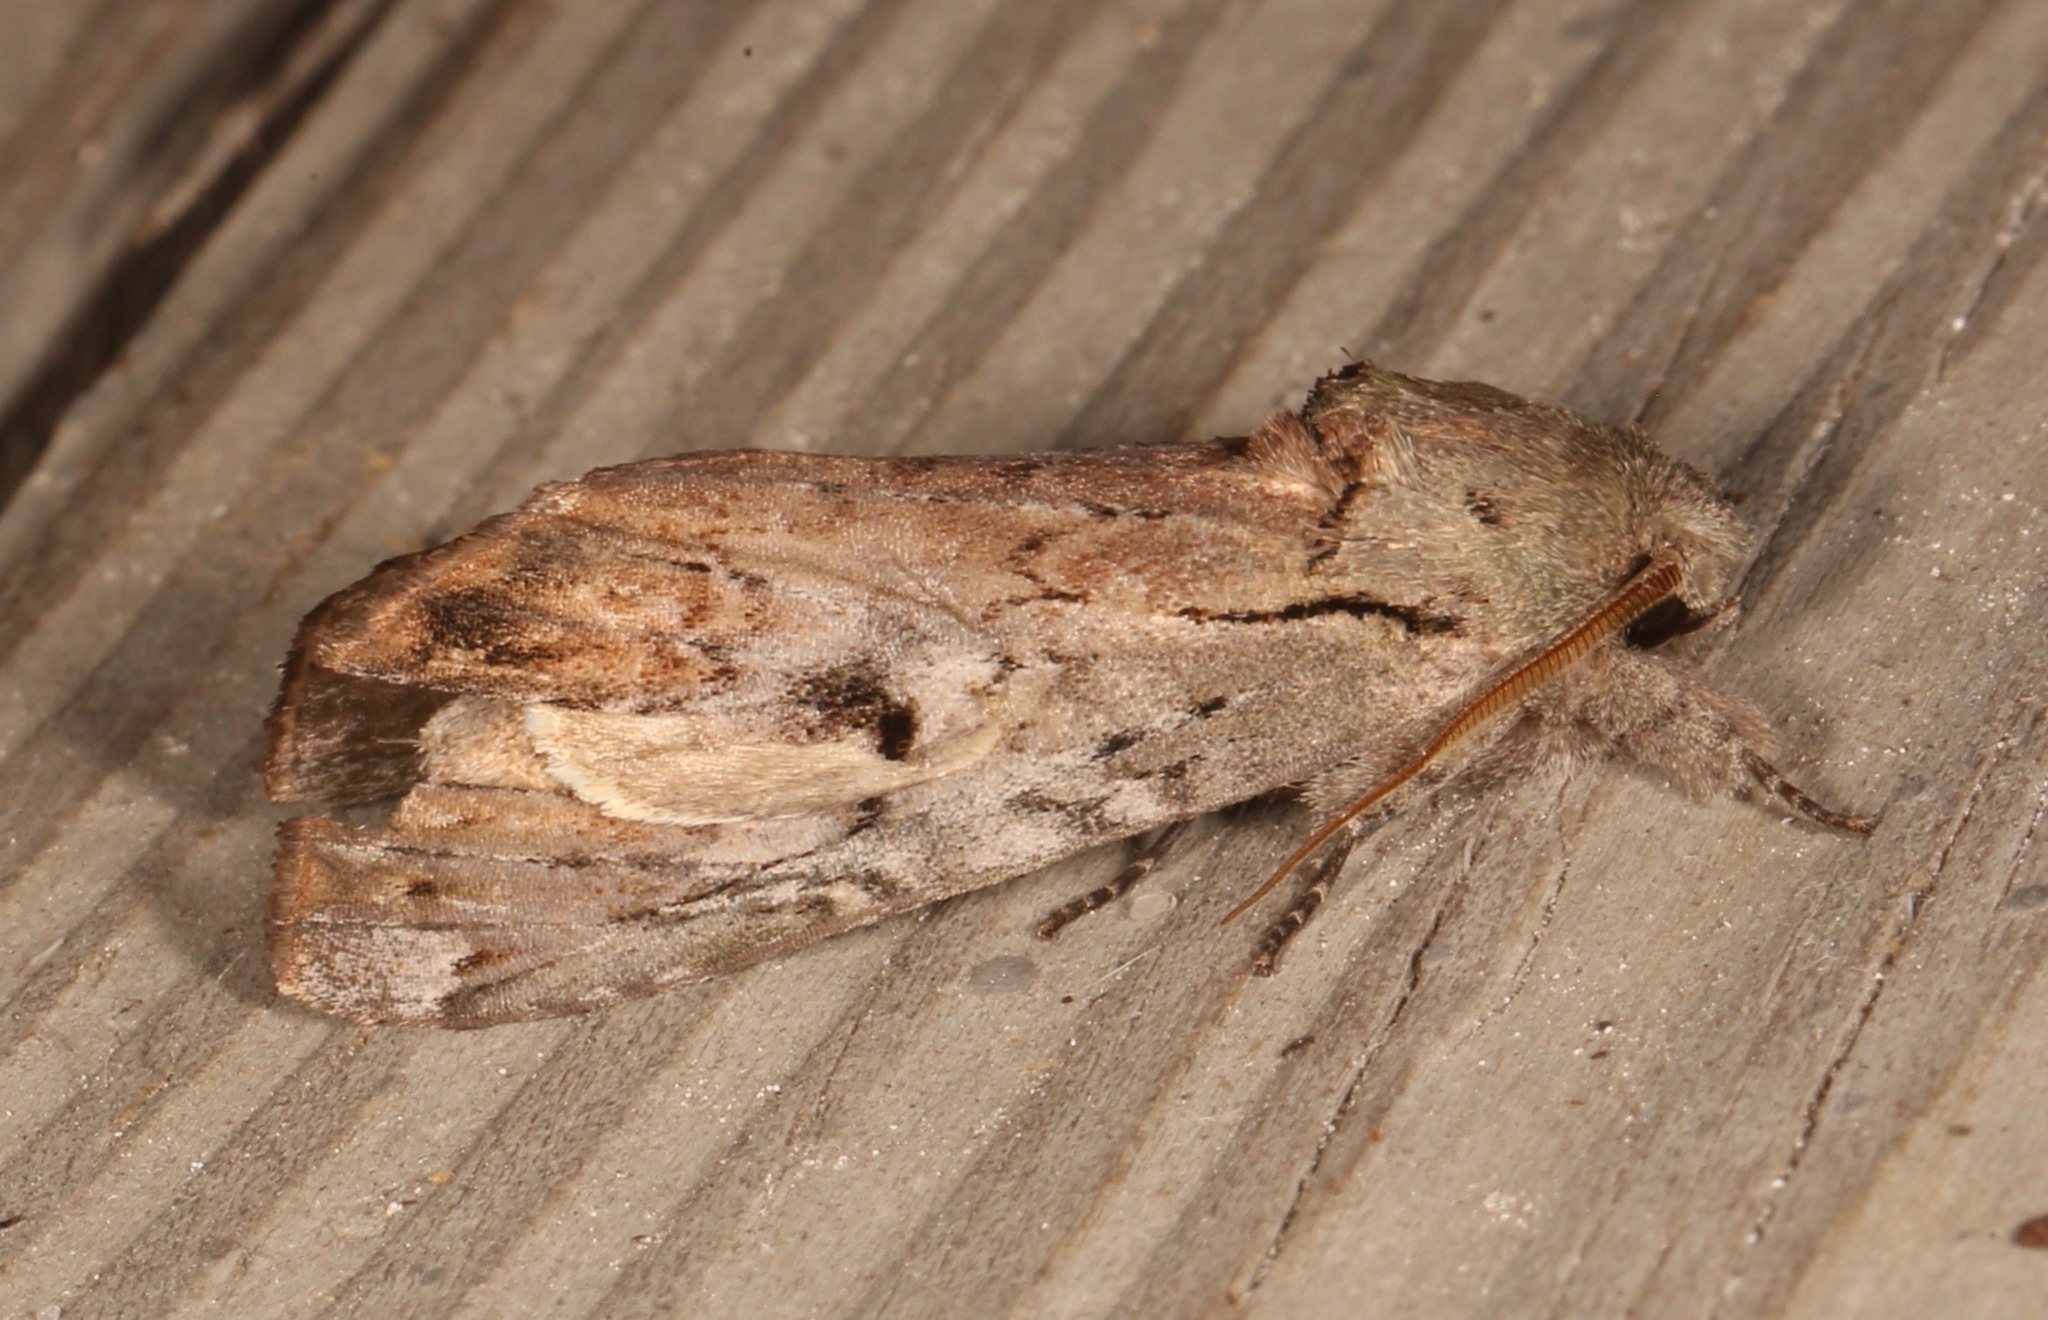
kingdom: Animalia
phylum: Arthropoda
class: Insecta
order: Lepidoptera
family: Notodontidae
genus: Schizura
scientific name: Schizura
